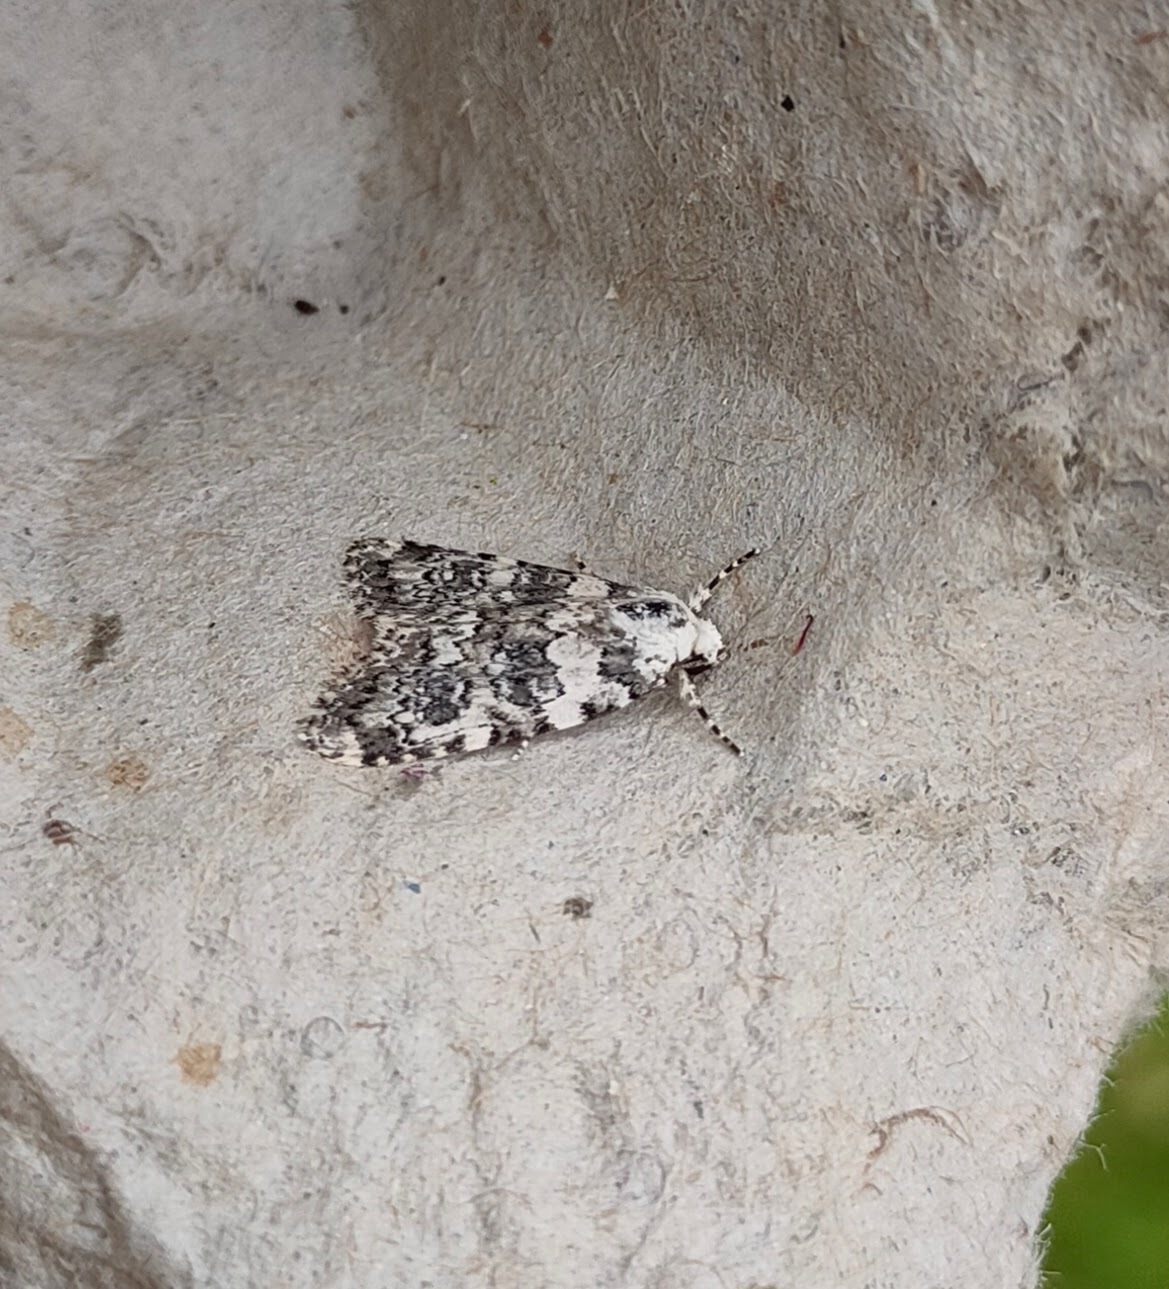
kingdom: Animalia
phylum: Arthropoda
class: Insecta
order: Lepidoptera
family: Noctuidae
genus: Bryophila
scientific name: Bryophila domestica
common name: Marbled beauty
